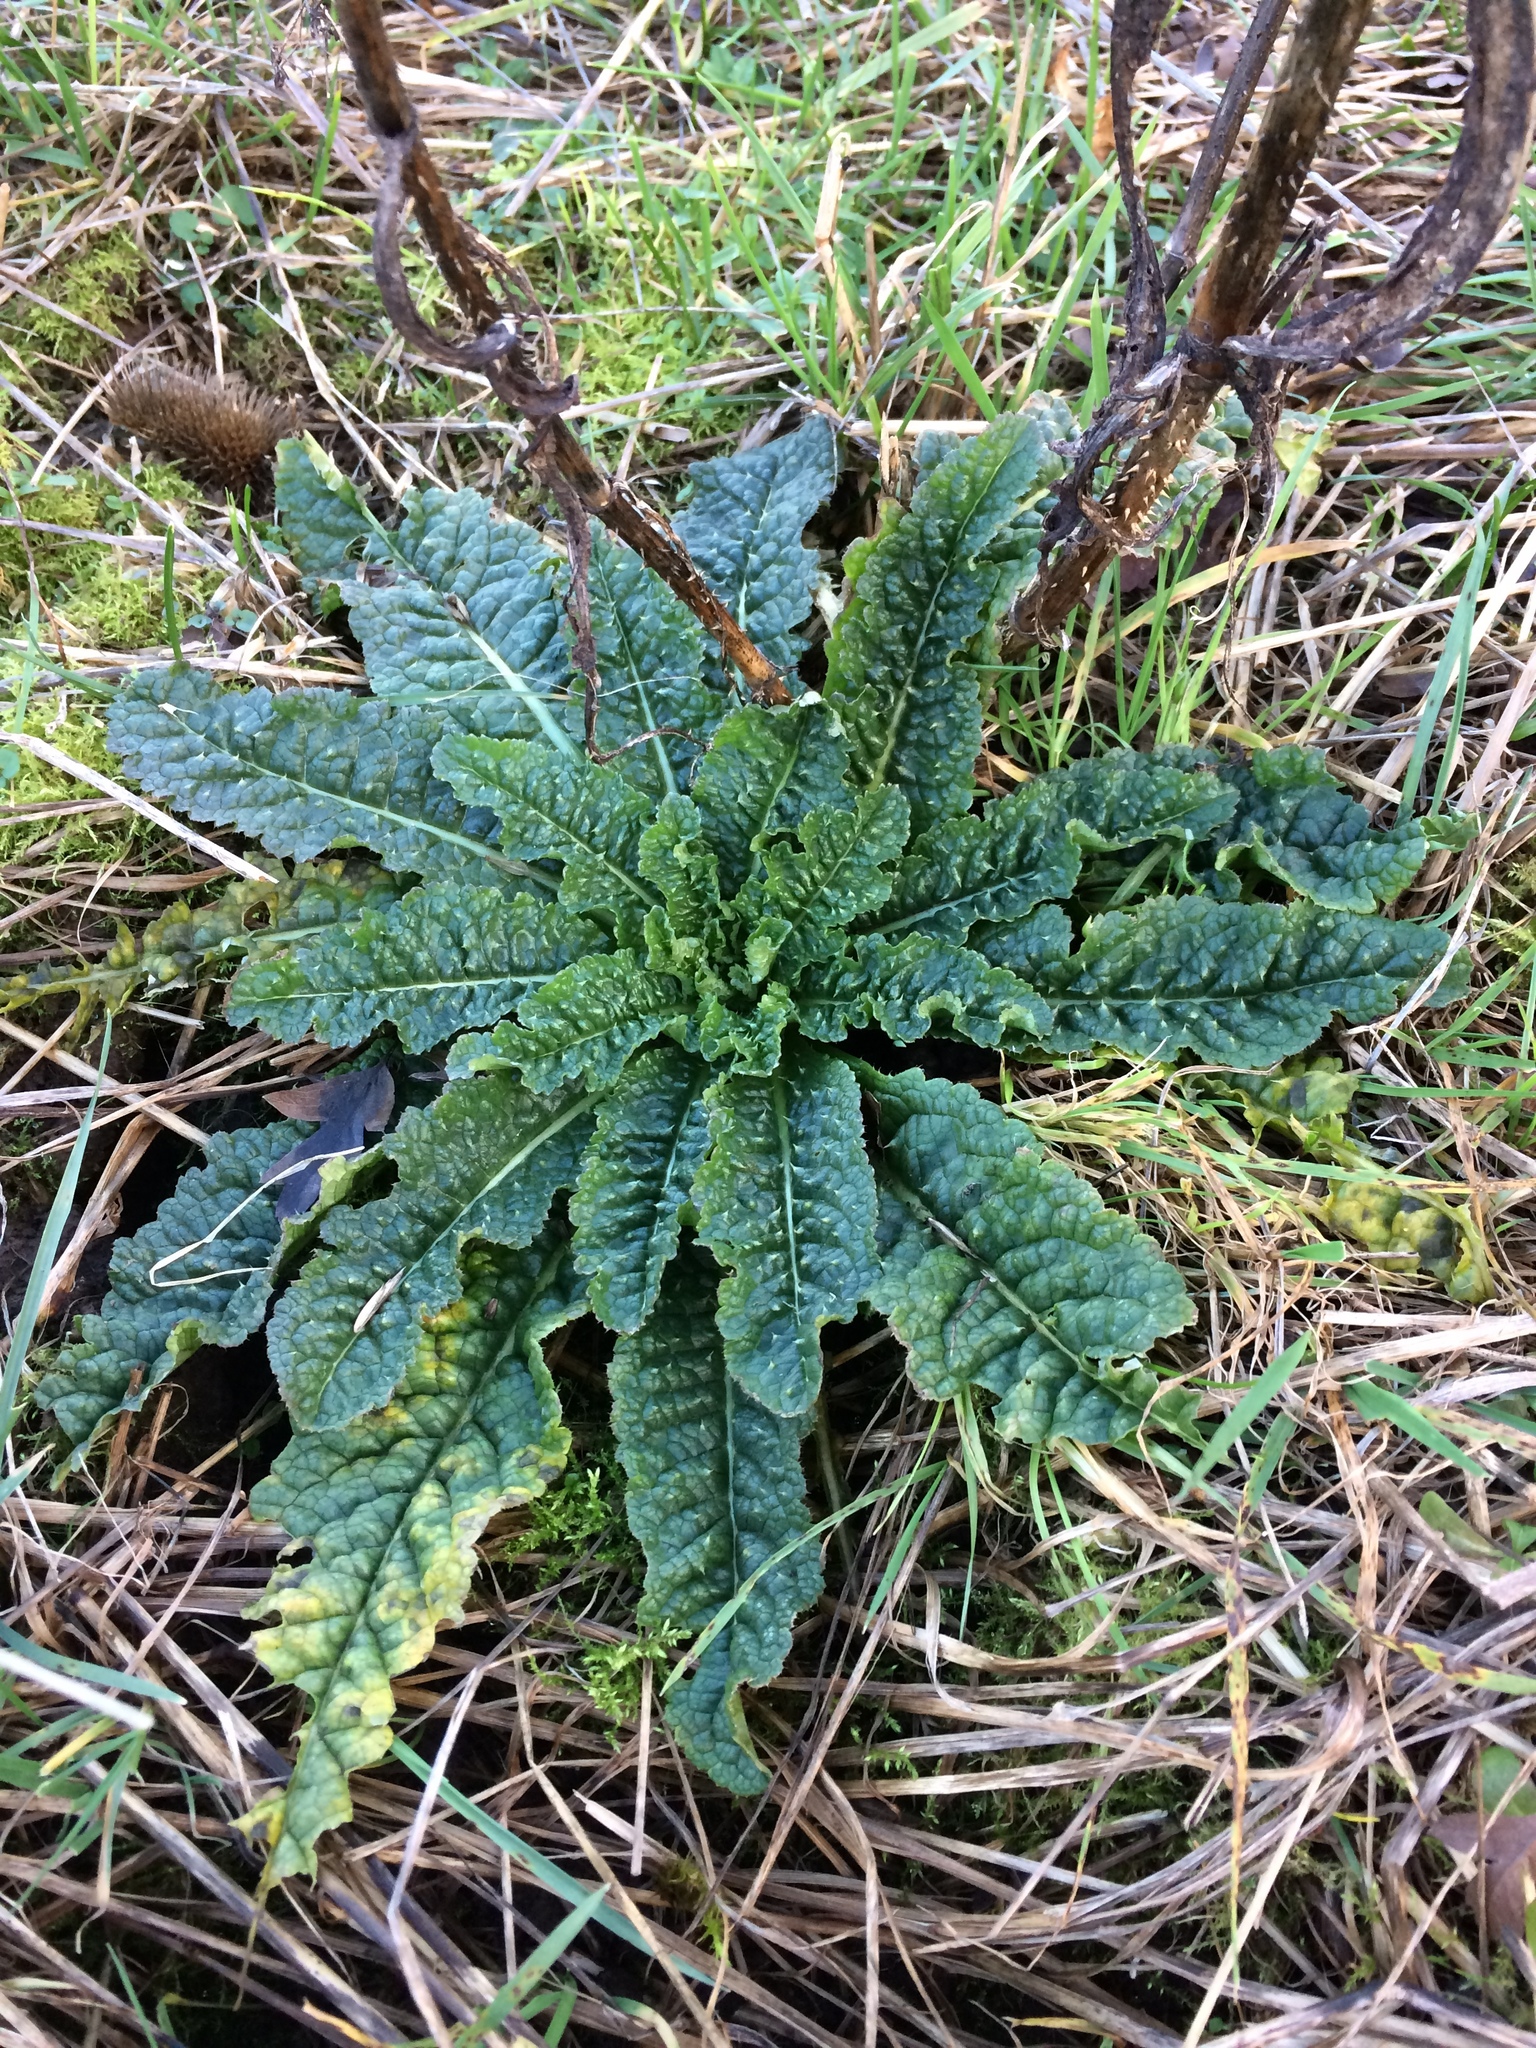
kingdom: Plantae
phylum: Tracheophyta
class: Magnoliopsida
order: Dipsacales
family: Caprifoliaceae
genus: Dipsacus
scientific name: Dipsacus fullonum
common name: Teasel
